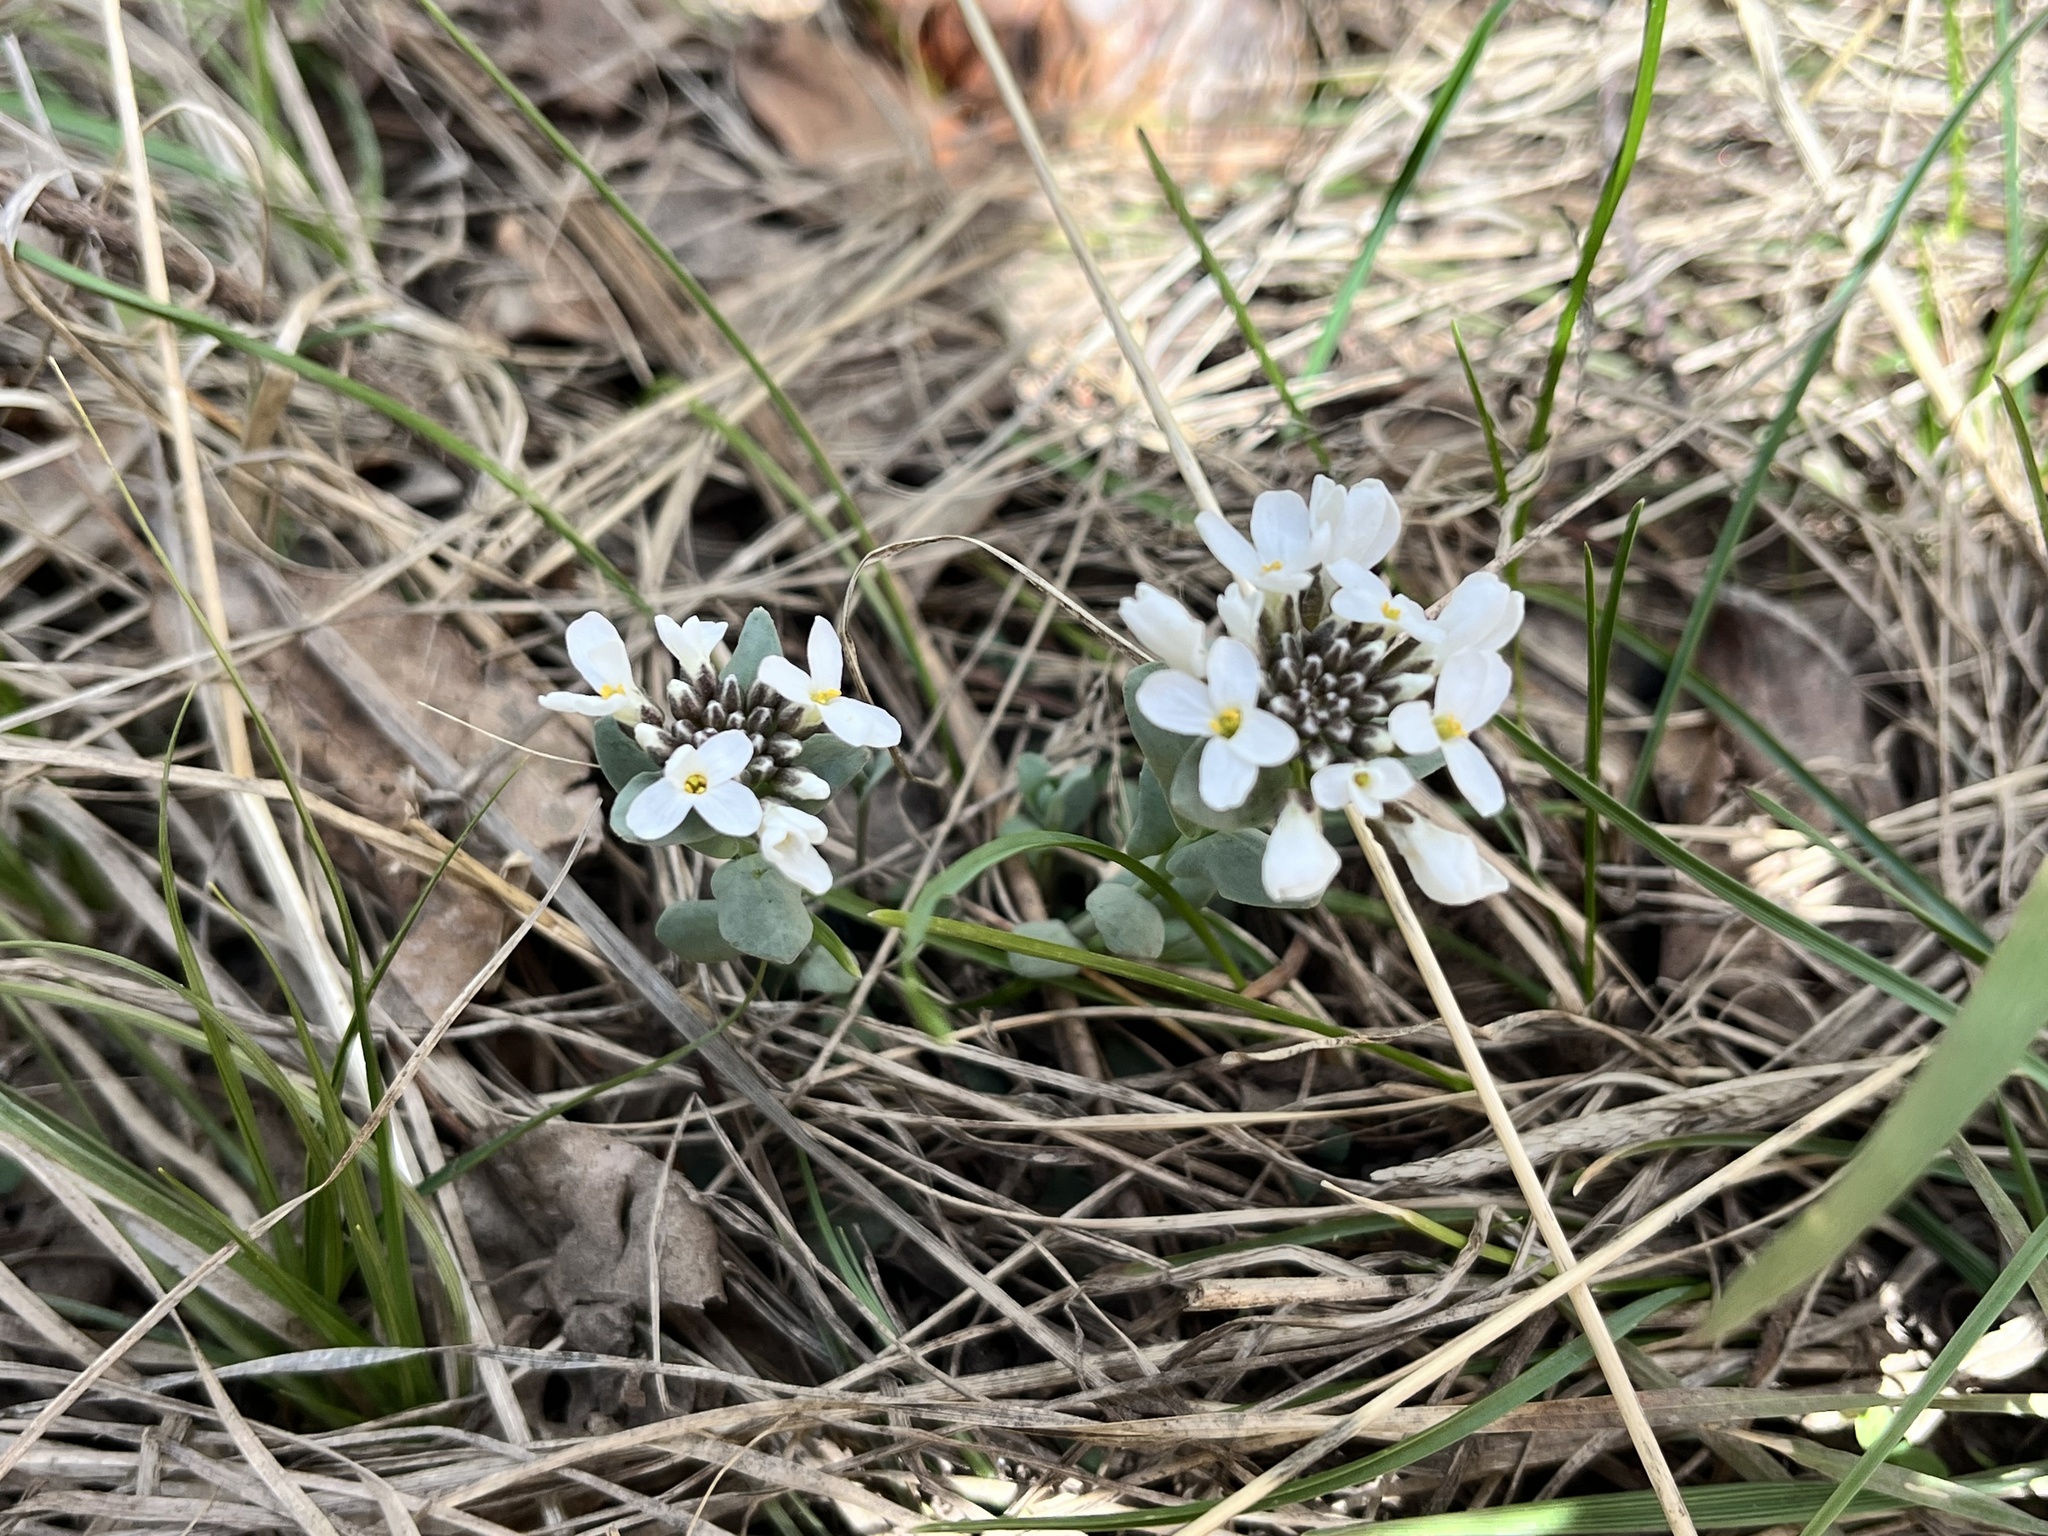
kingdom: Plantae
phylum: Tracheophyta
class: Magnoliopsida
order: Brassicales
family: Brassicaceae
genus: Noccaea
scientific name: Noccaea fendleri
